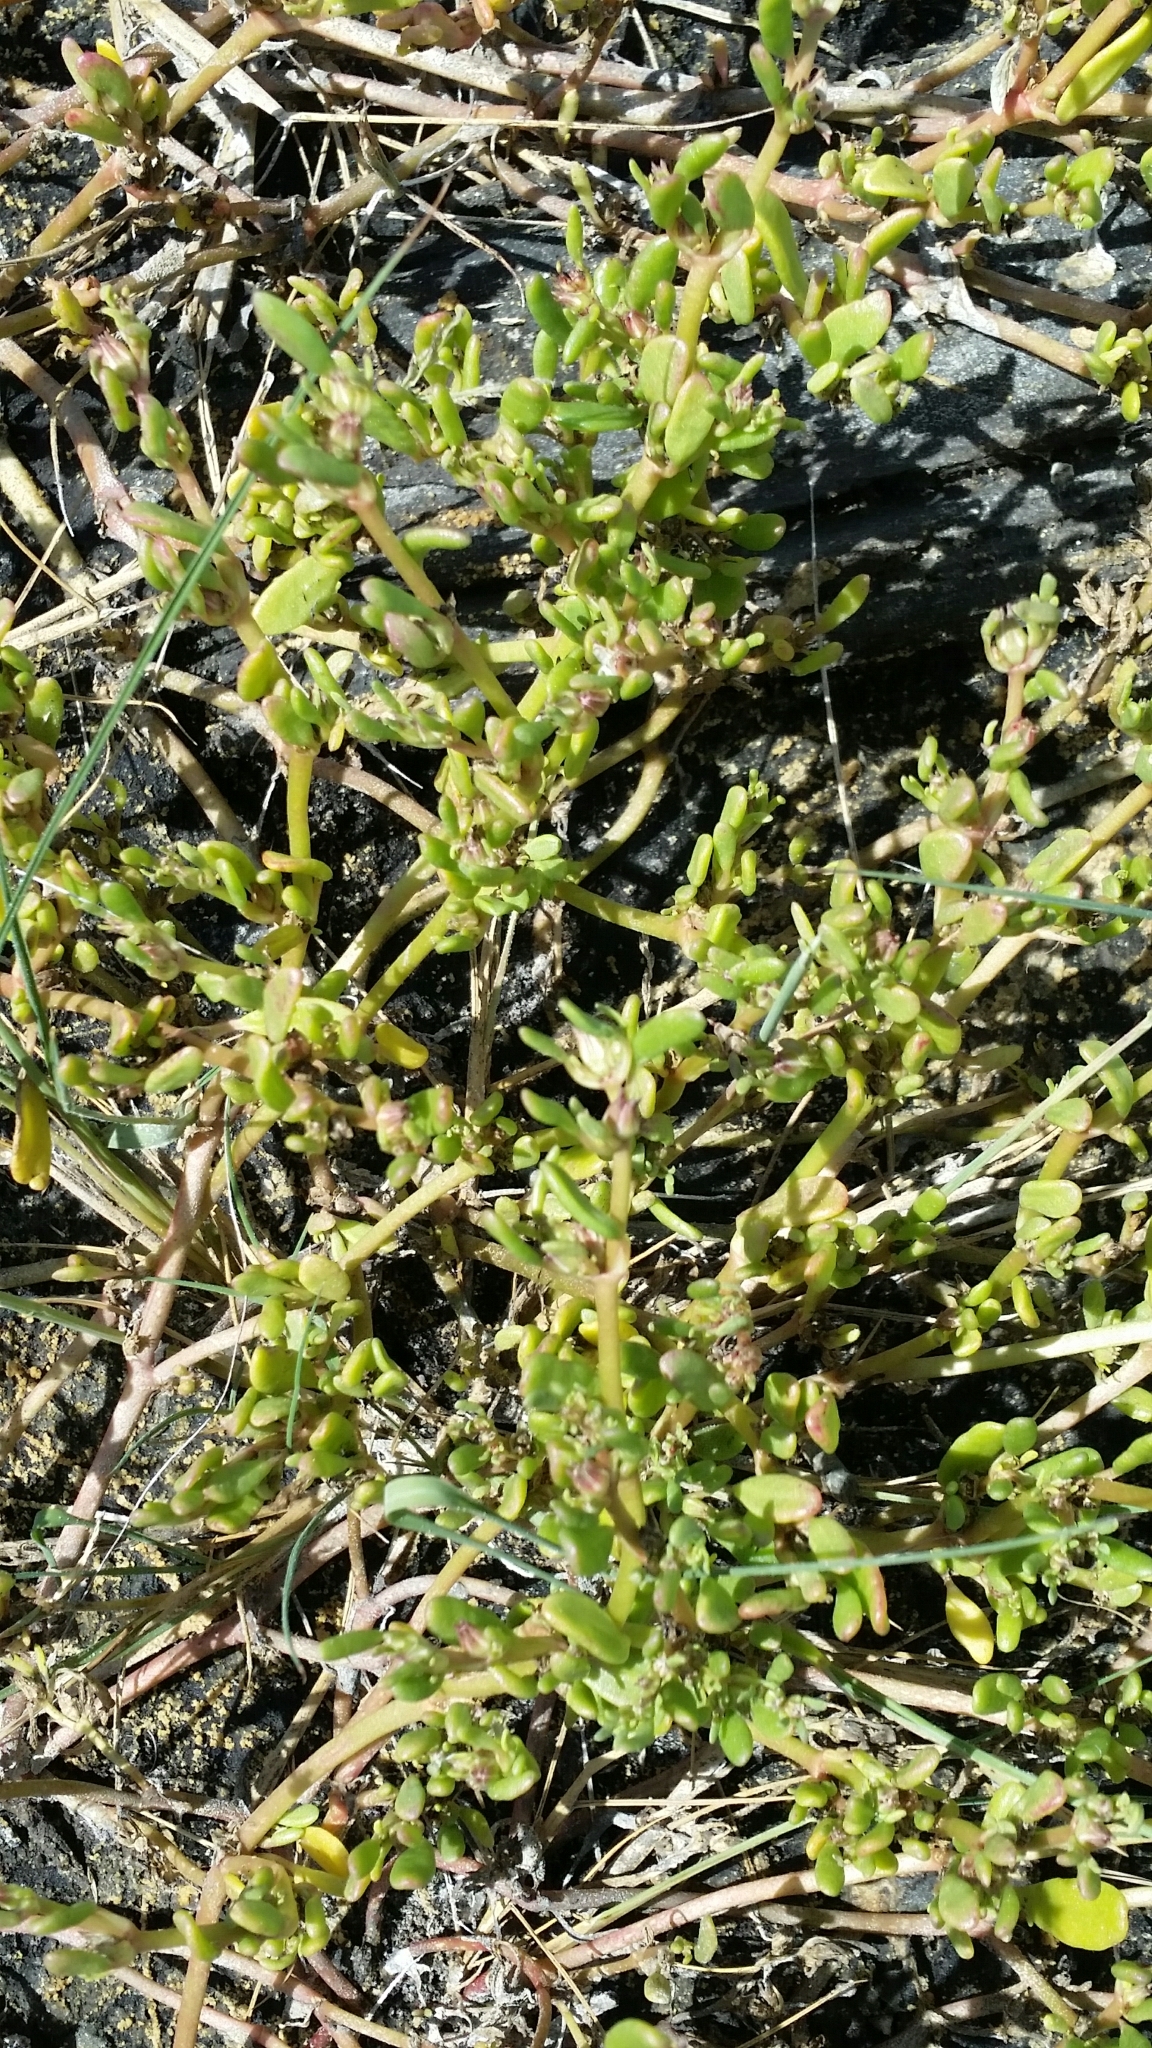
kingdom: Plantae
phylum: Tracheophyta
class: Magnoliopsida
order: Caryophyllales
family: Aizoaceae
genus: Sesuvium
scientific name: Sesuvium maritimum
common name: Slender sea-purslane
